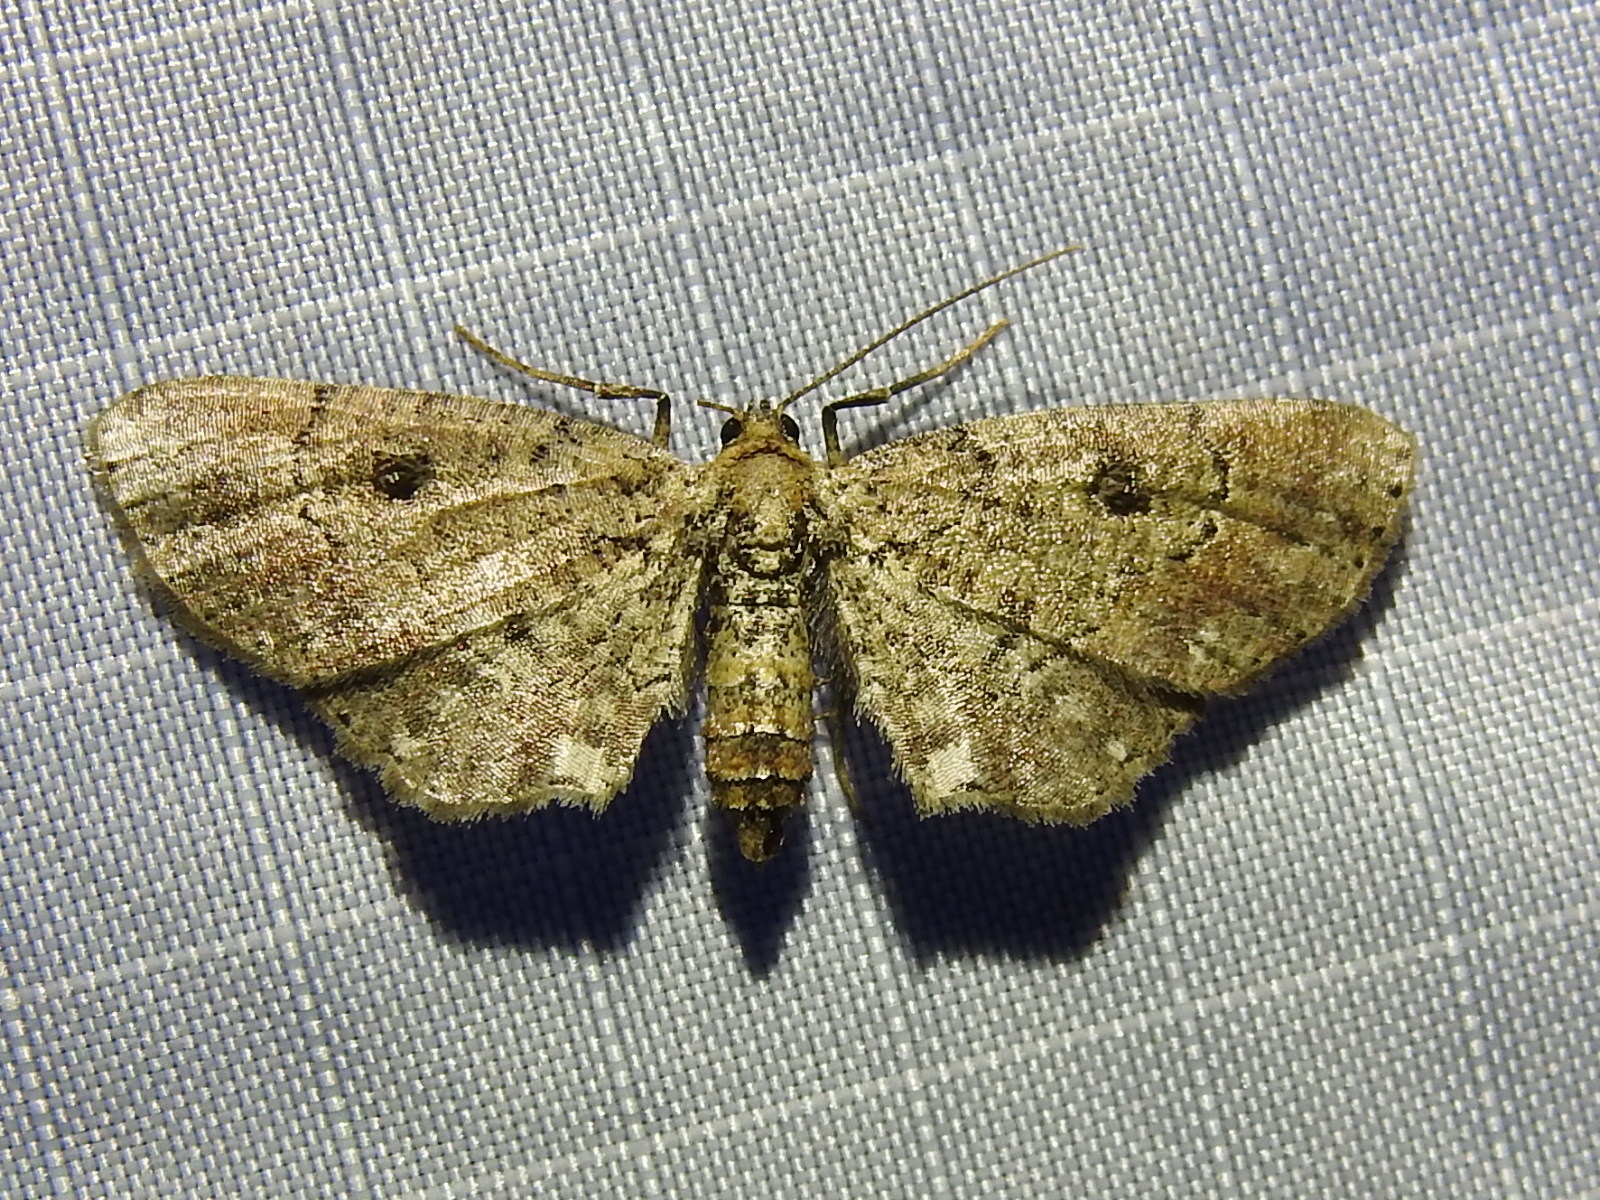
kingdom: Animalia
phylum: Arthropoda
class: Insecta
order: Lepidoptera
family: Geometridae
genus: Tornos
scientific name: Tornos punctata
